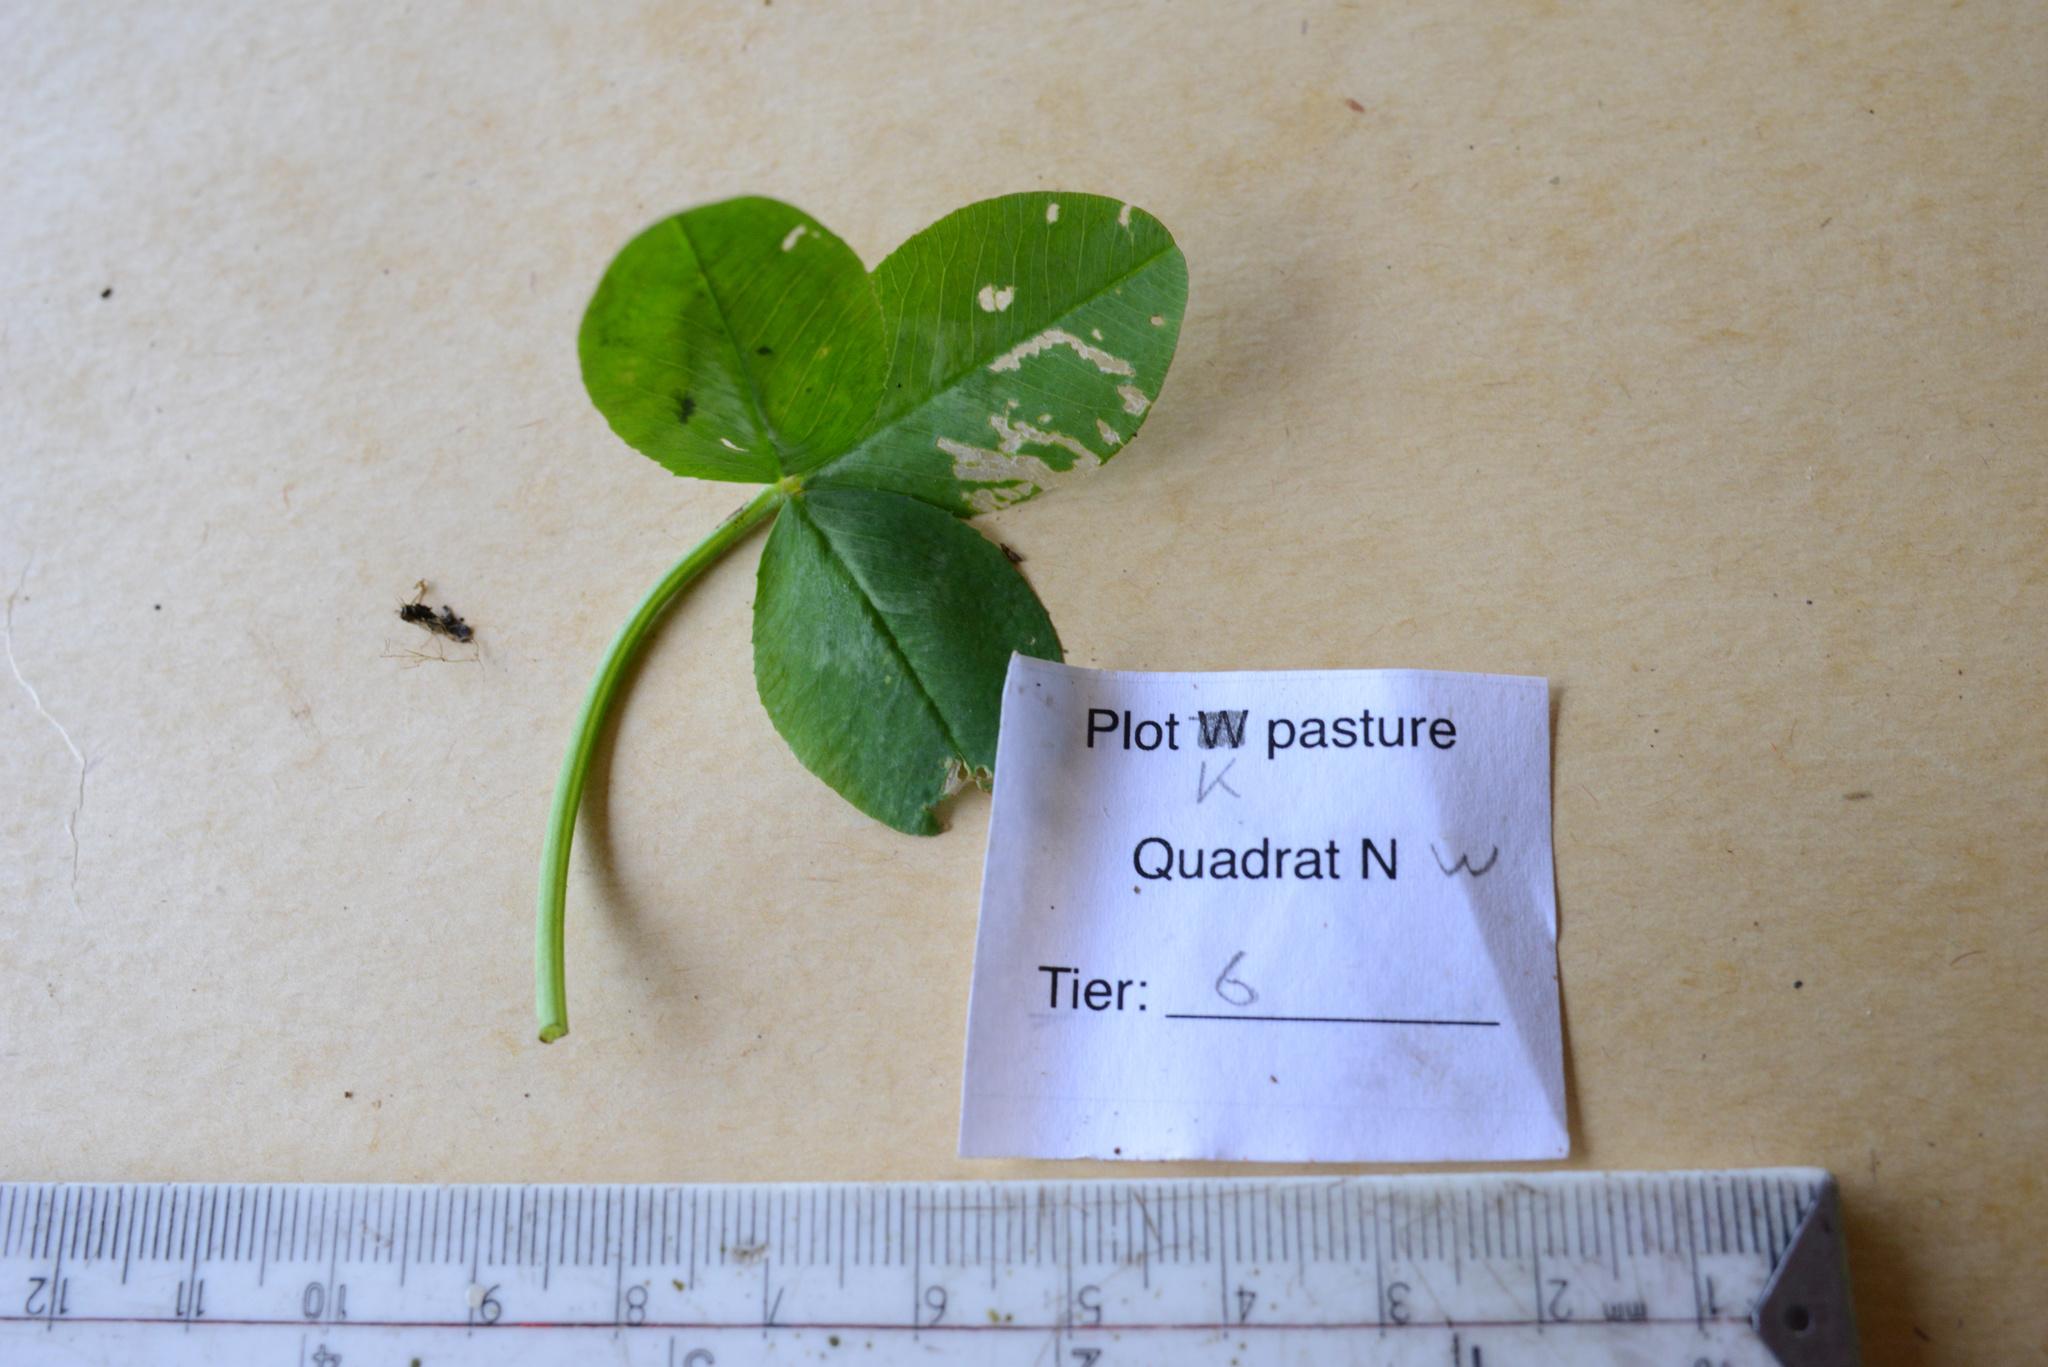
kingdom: Plantae
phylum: Tracheophyta
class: Magnoliopsida
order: Fabales
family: Fabaceae
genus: Trifolium
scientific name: Trifolium repens
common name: White clover
